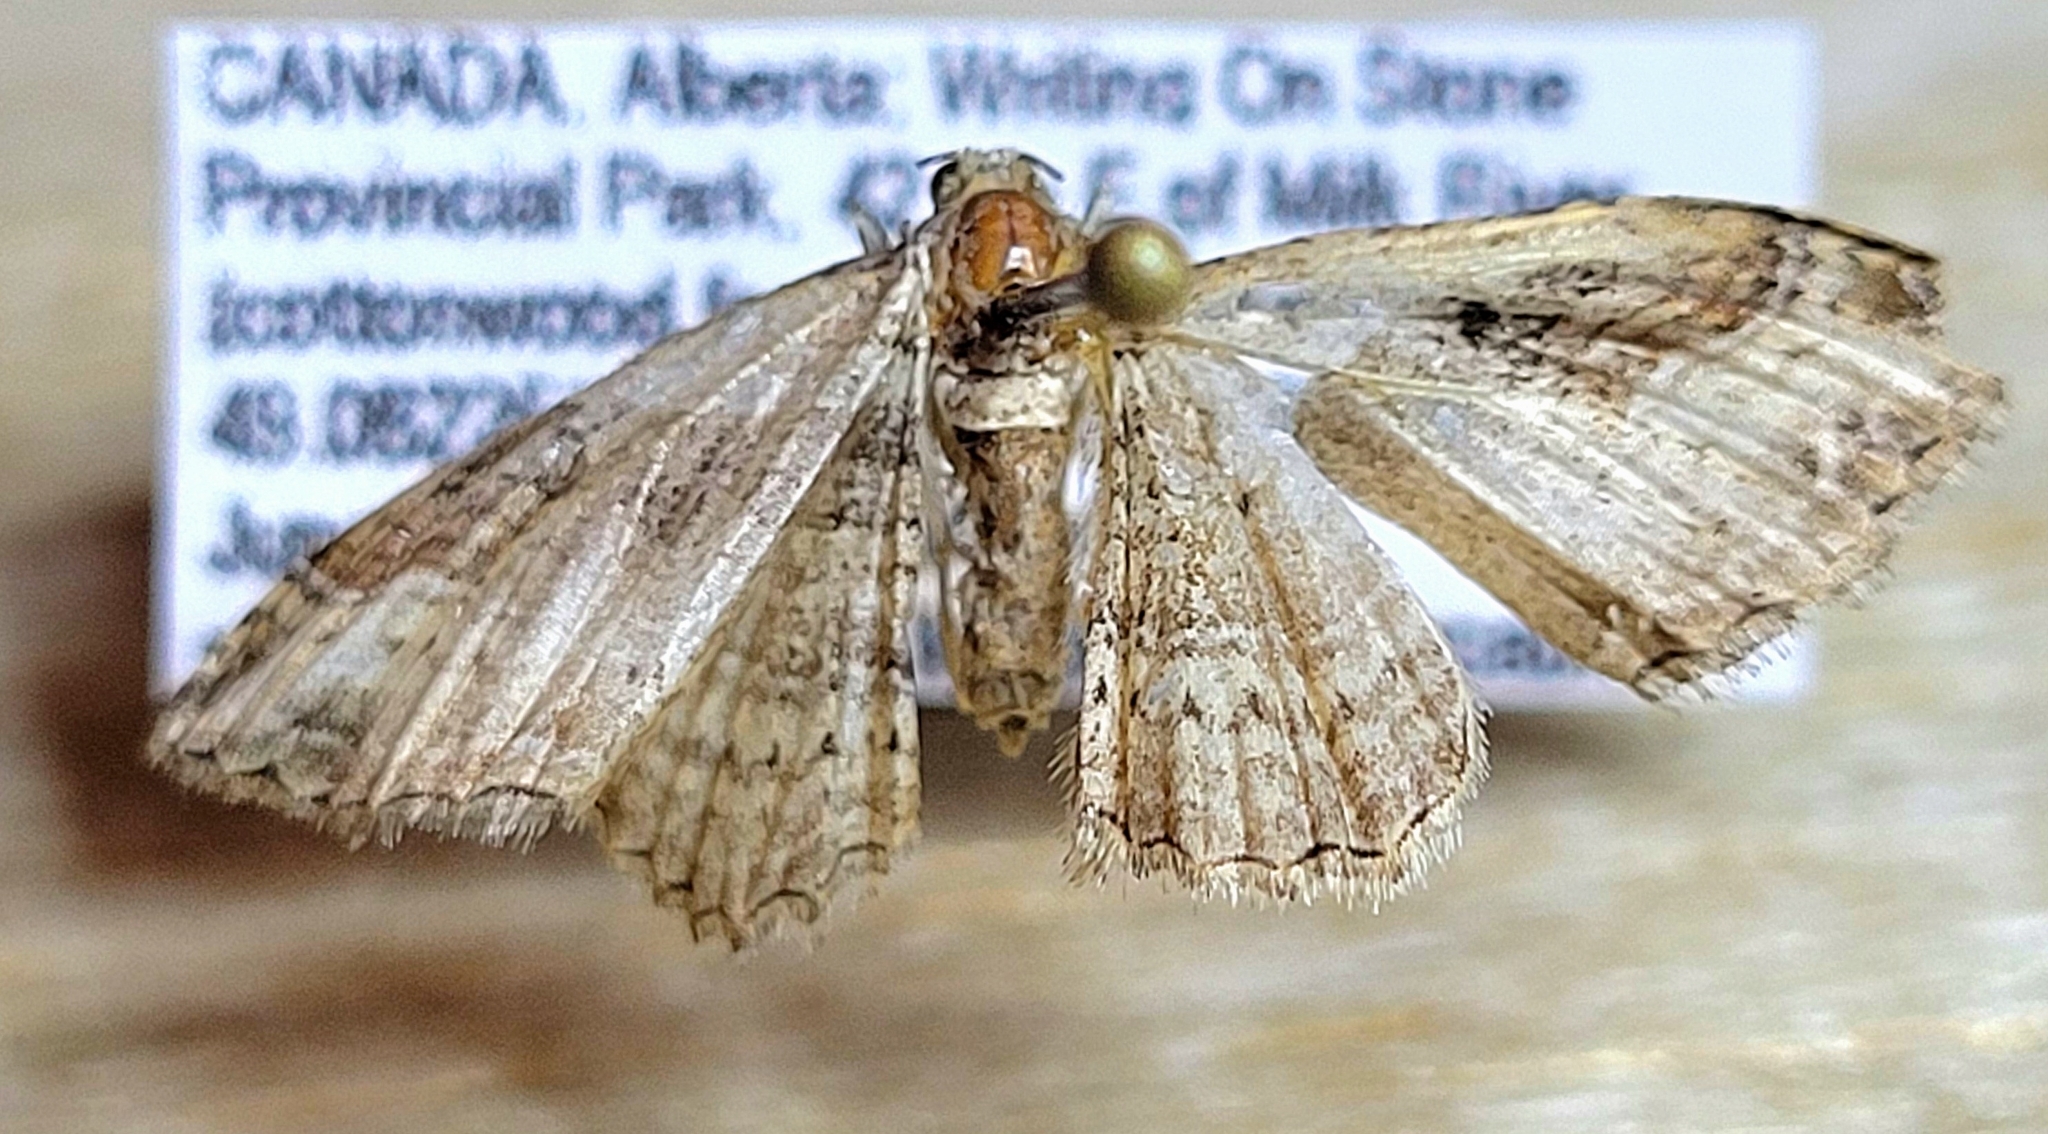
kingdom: Animalia
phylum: Arthropoda
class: Insecta
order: Lepidoptera
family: Geometridae
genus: Costaconvexa
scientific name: Costaconvexa centrostrigaria
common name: Bent-line carpet
